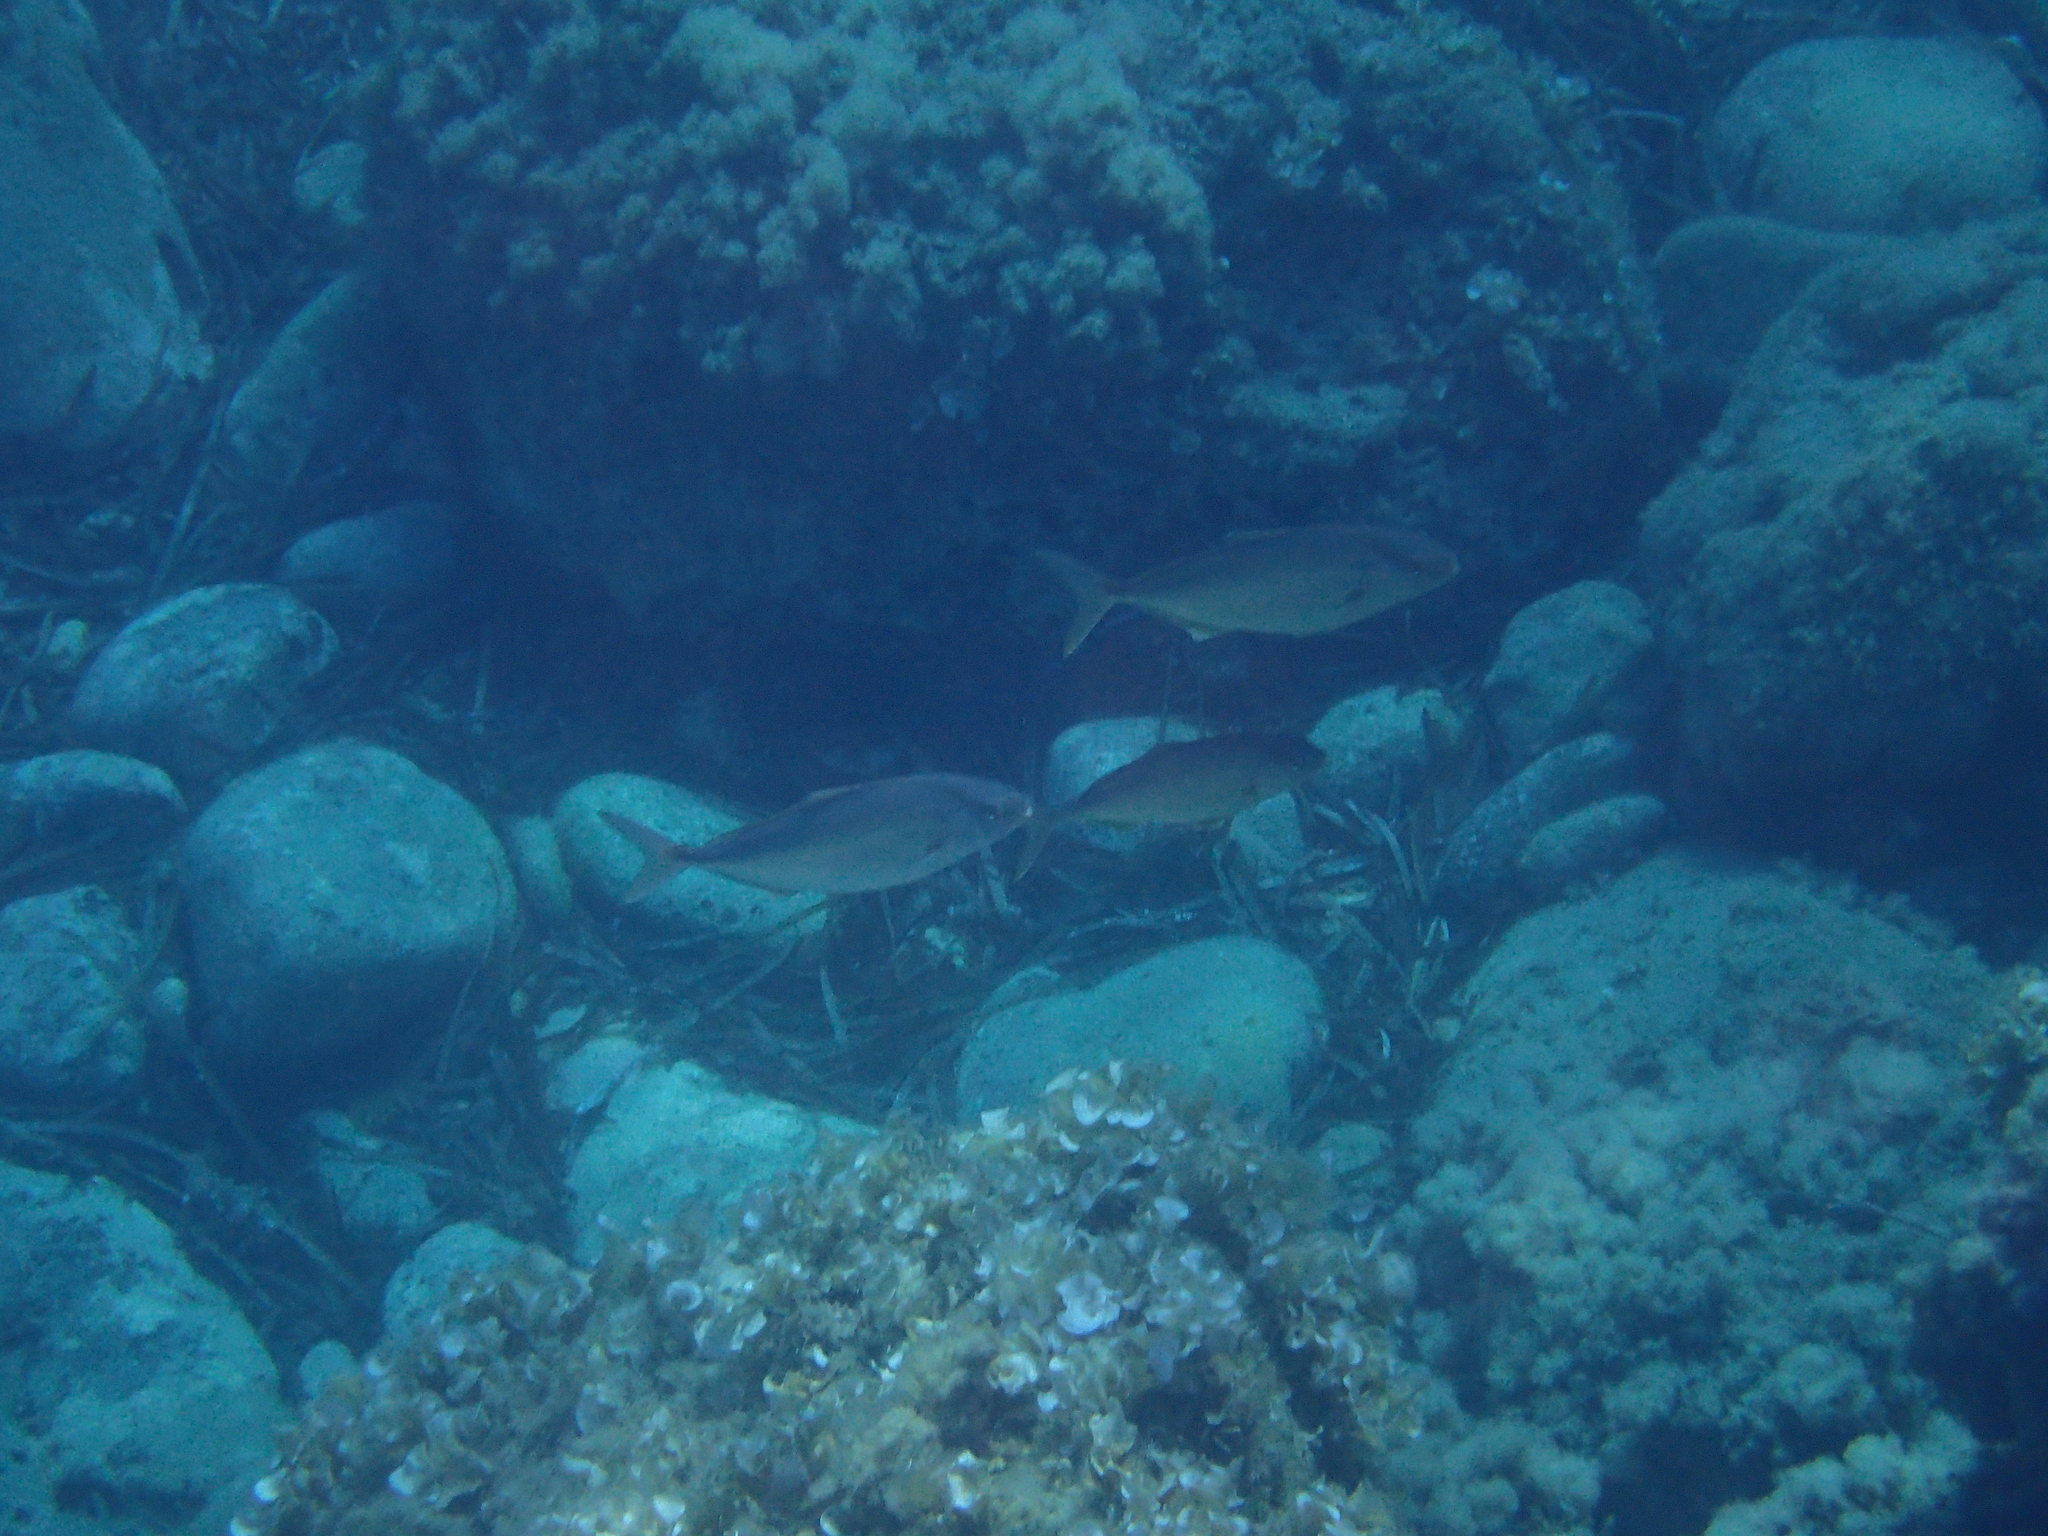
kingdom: Animalia
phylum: Chordata
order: Perciformes
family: Carangidae
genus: Seriola
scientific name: Seriola dumerili
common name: Greater amberjack
